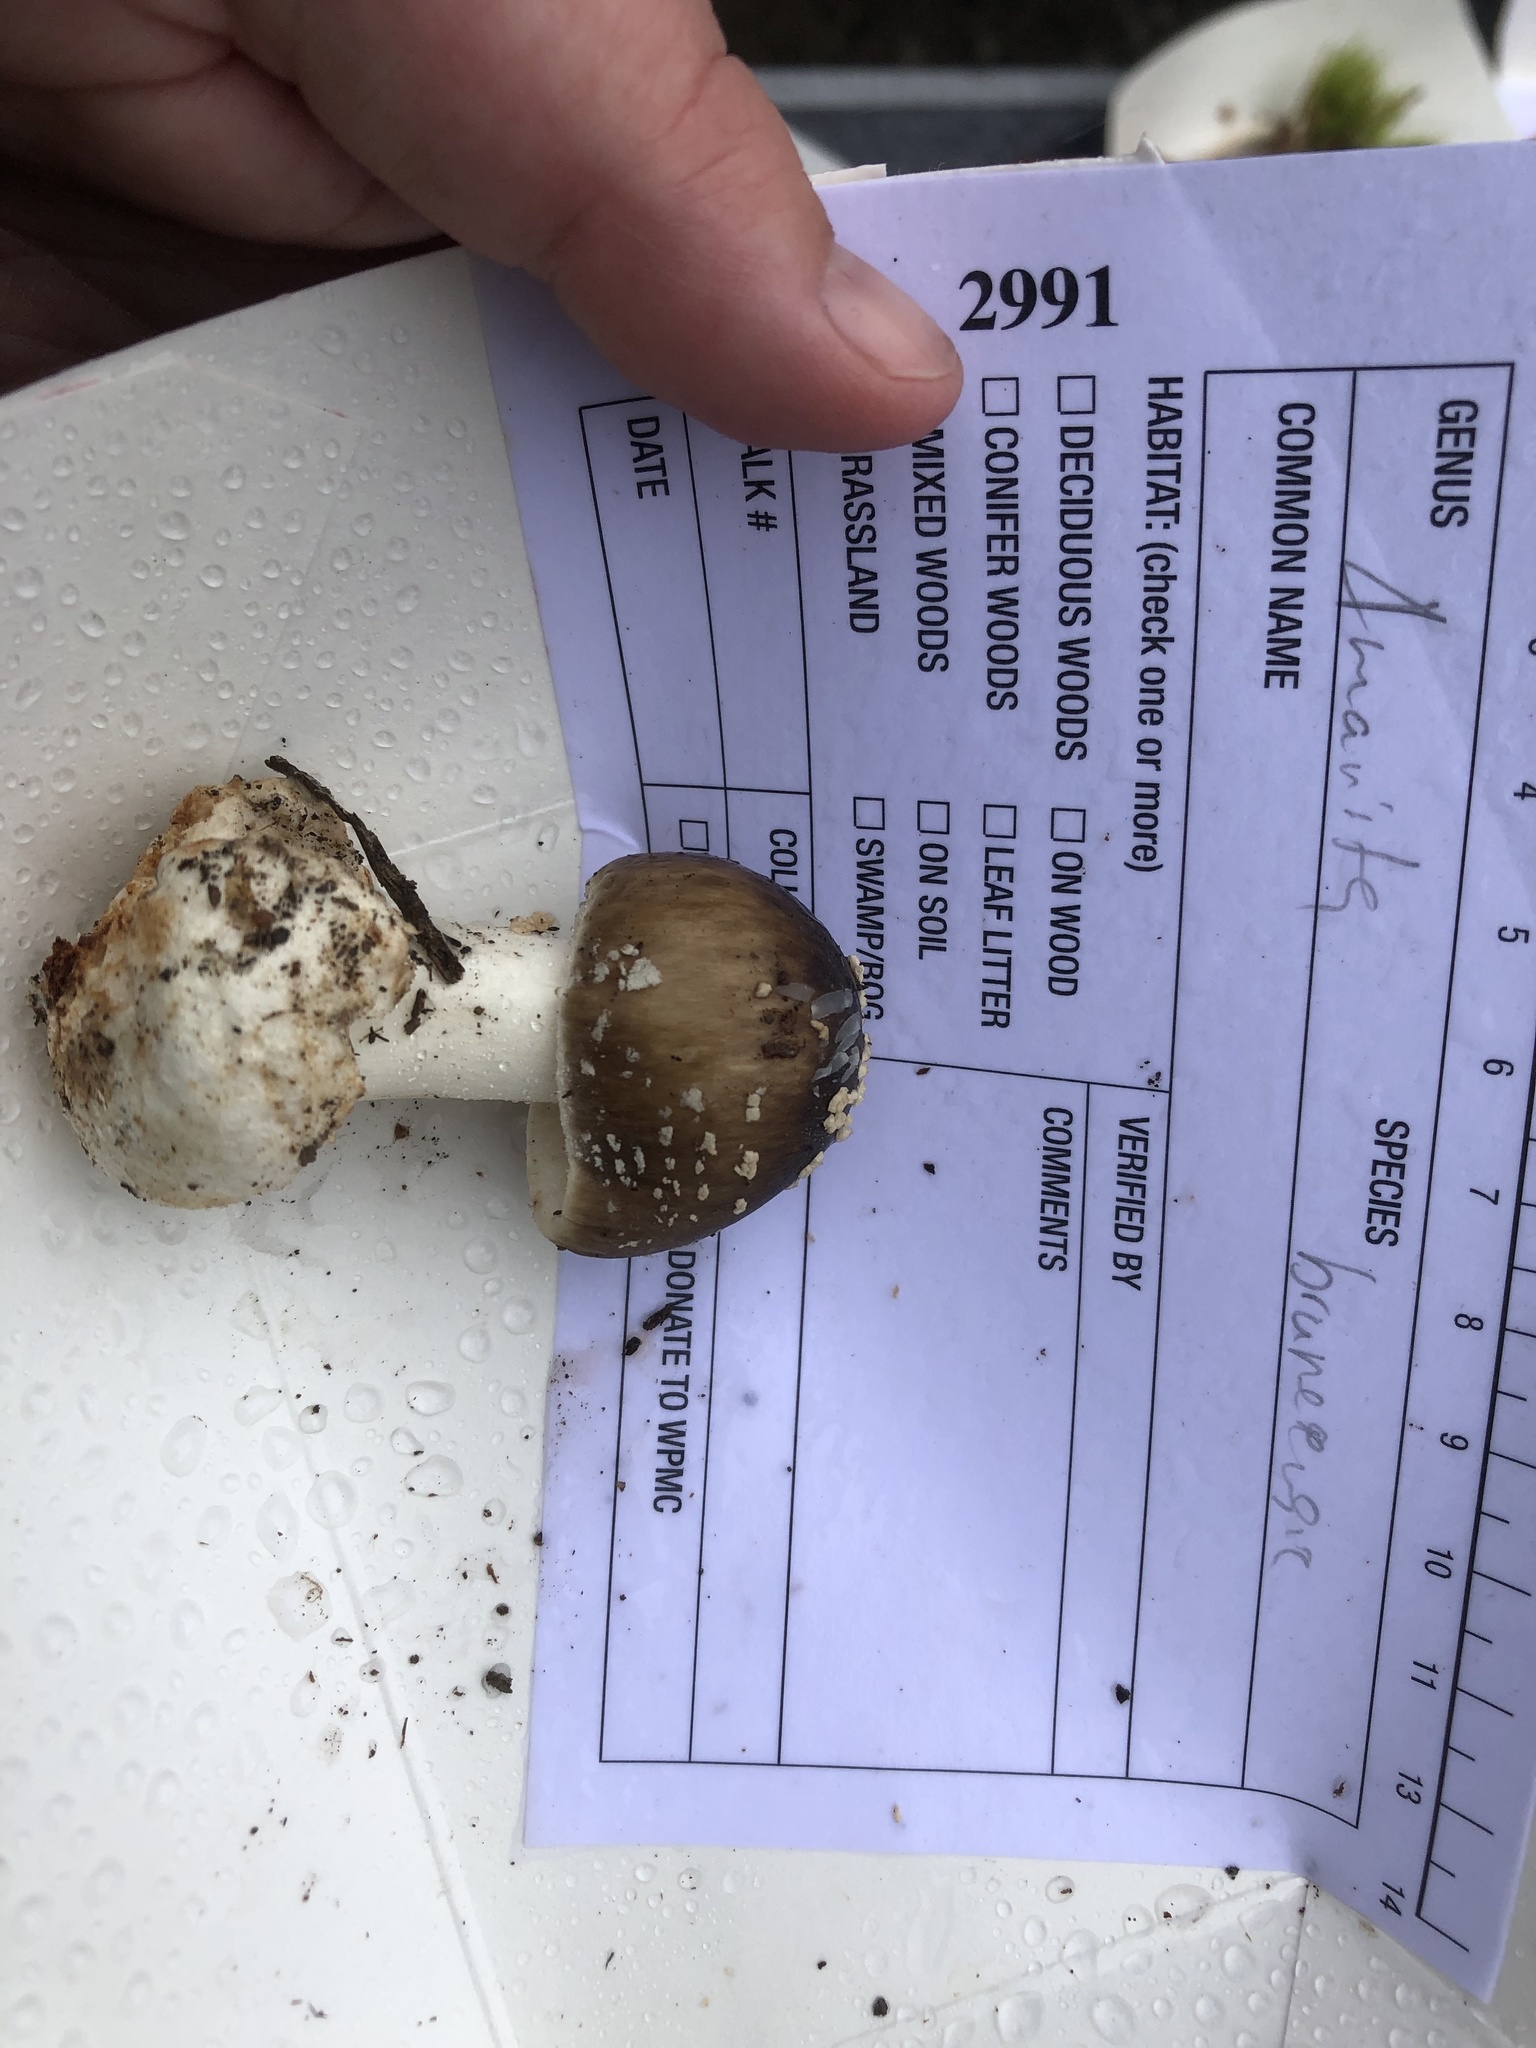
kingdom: Fungi
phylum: Basidiomycota
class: Agaricomycetes
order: Agaricales
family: Amanitaceae
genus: Amanita
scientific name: Amanita brunnescens
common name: Brown american star-footed amanita
